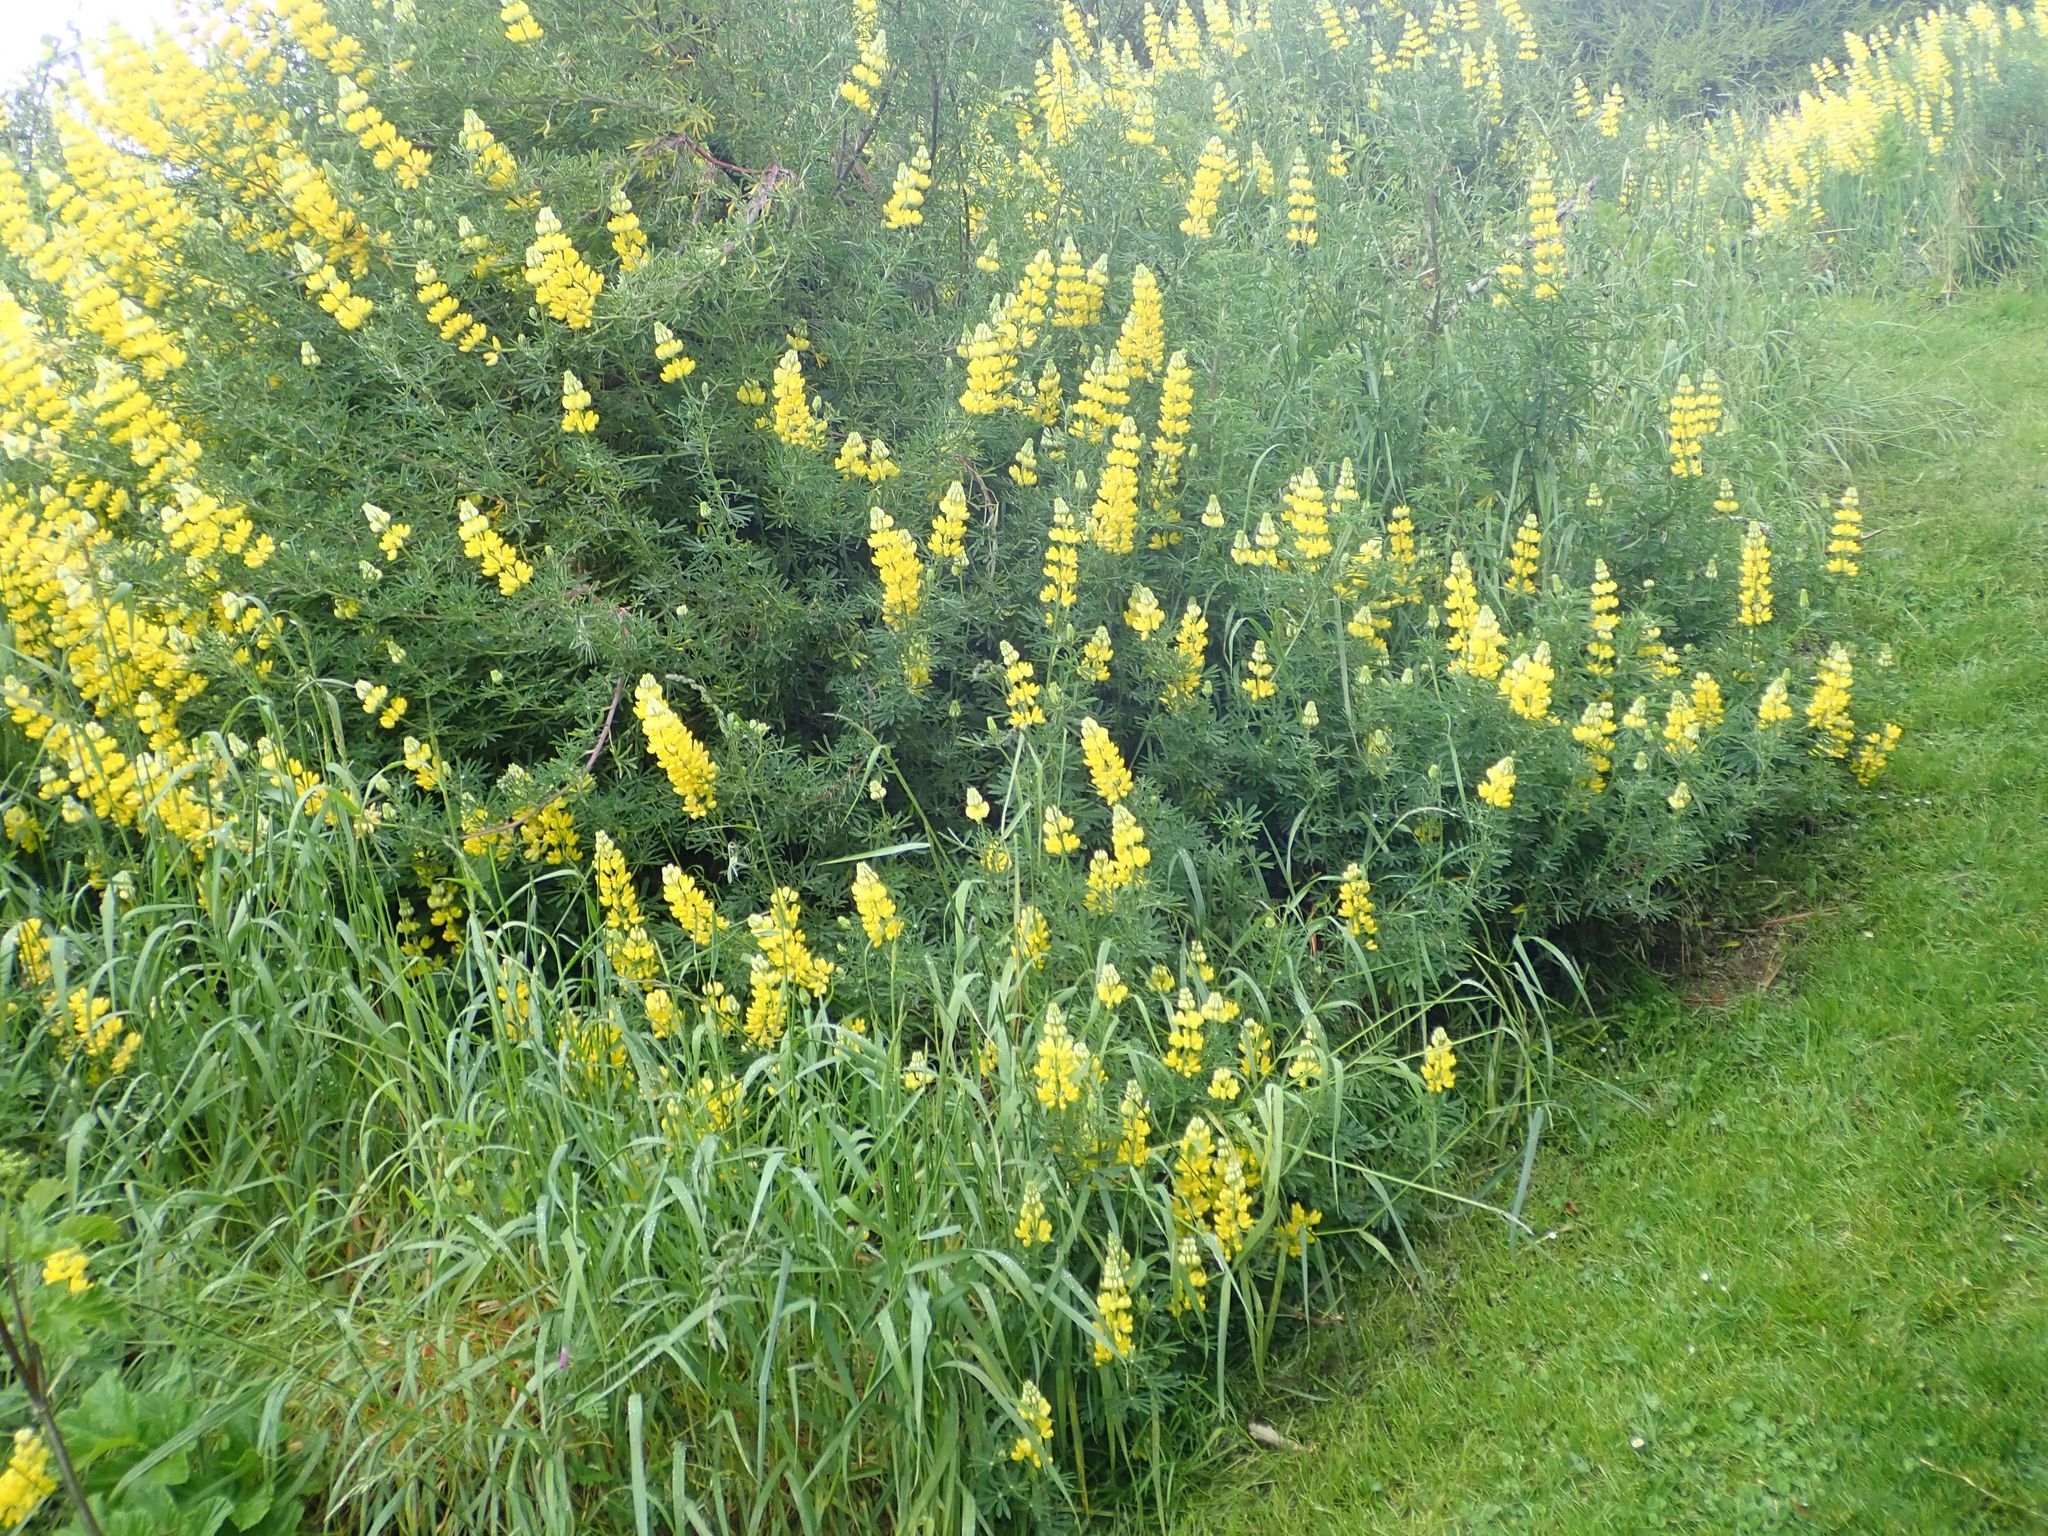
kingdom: Plantae
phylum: Tracheophyta
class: Magnoliopsida
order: Fabales
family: Fabaceae
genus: Lupinus
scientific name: Lupinus arboreus
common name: Yellow bush lupine
